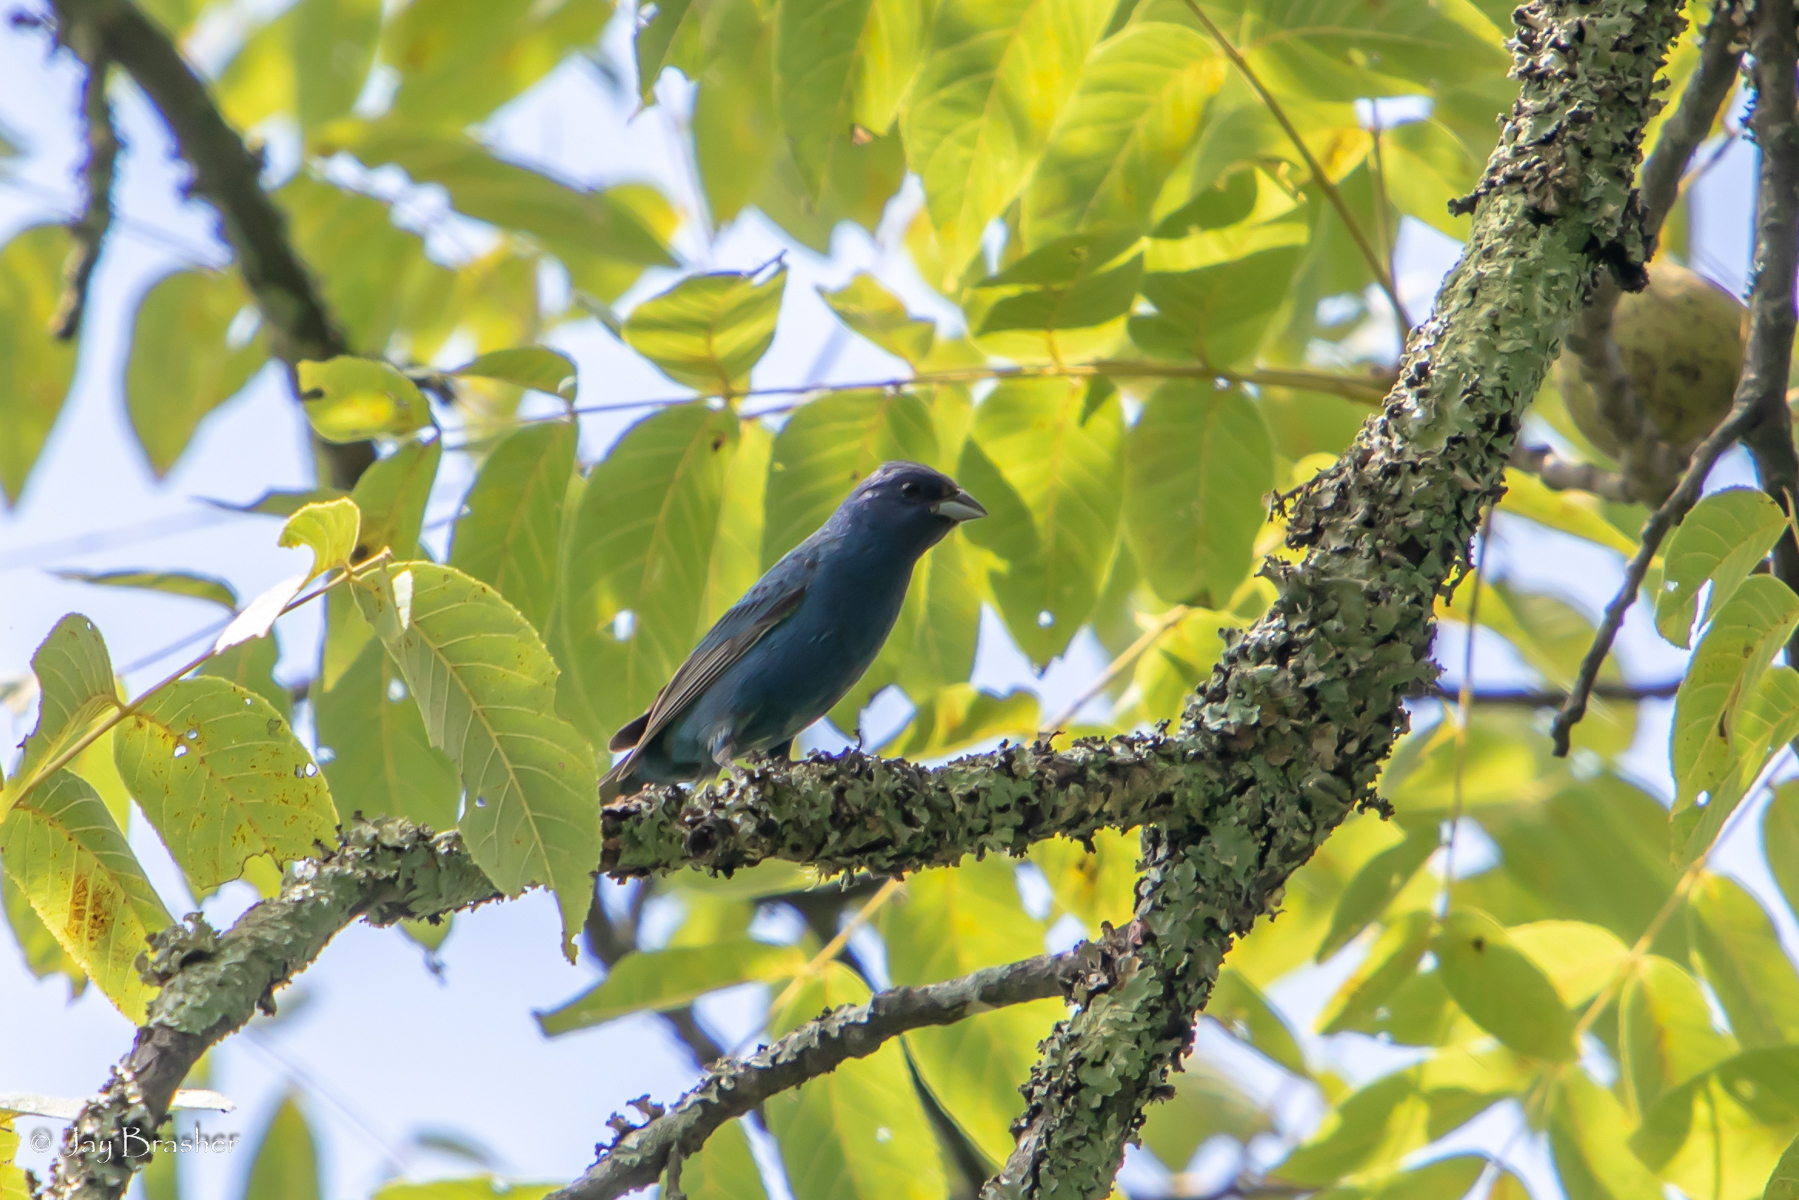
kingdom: Animalia
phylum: Chordata
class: Aves
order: Passeriformes
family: Cardinalidae
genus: Passerina
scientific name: Passerina cyanea
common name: Indigo bunting
